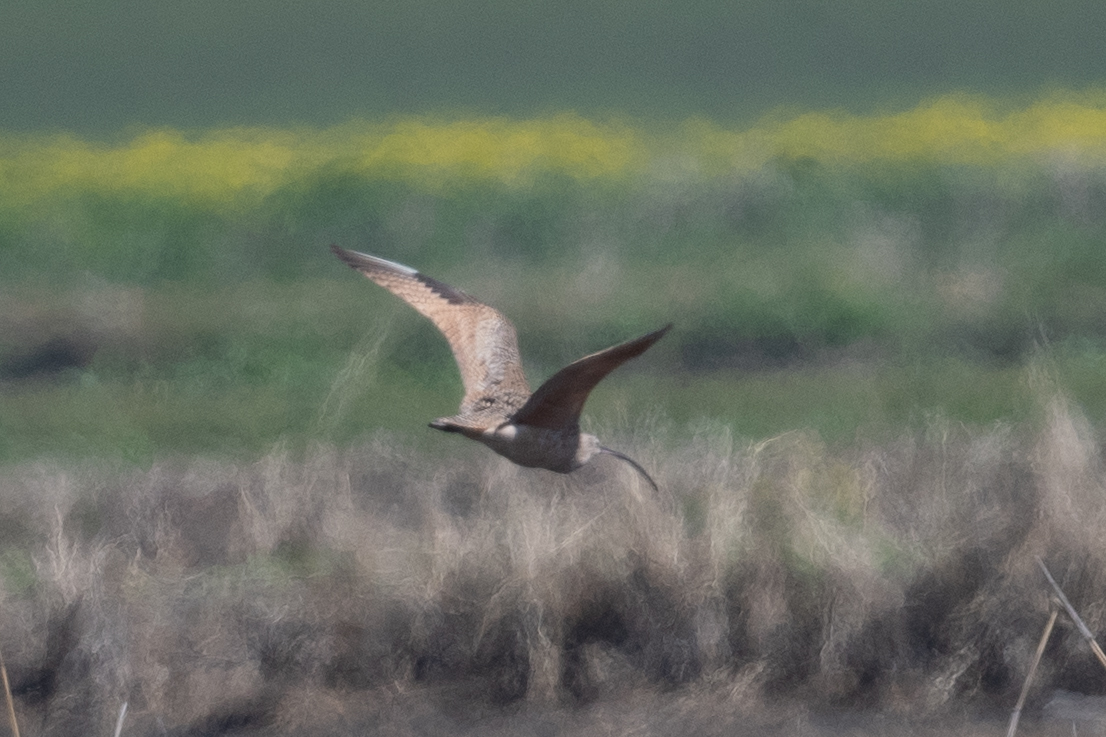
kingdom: Animalia
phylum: Chordata
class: Aves
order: Charadriiformes
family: Scolopacidae
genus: Numenius
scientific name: Numenius americanus
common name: Long-billed curlew
